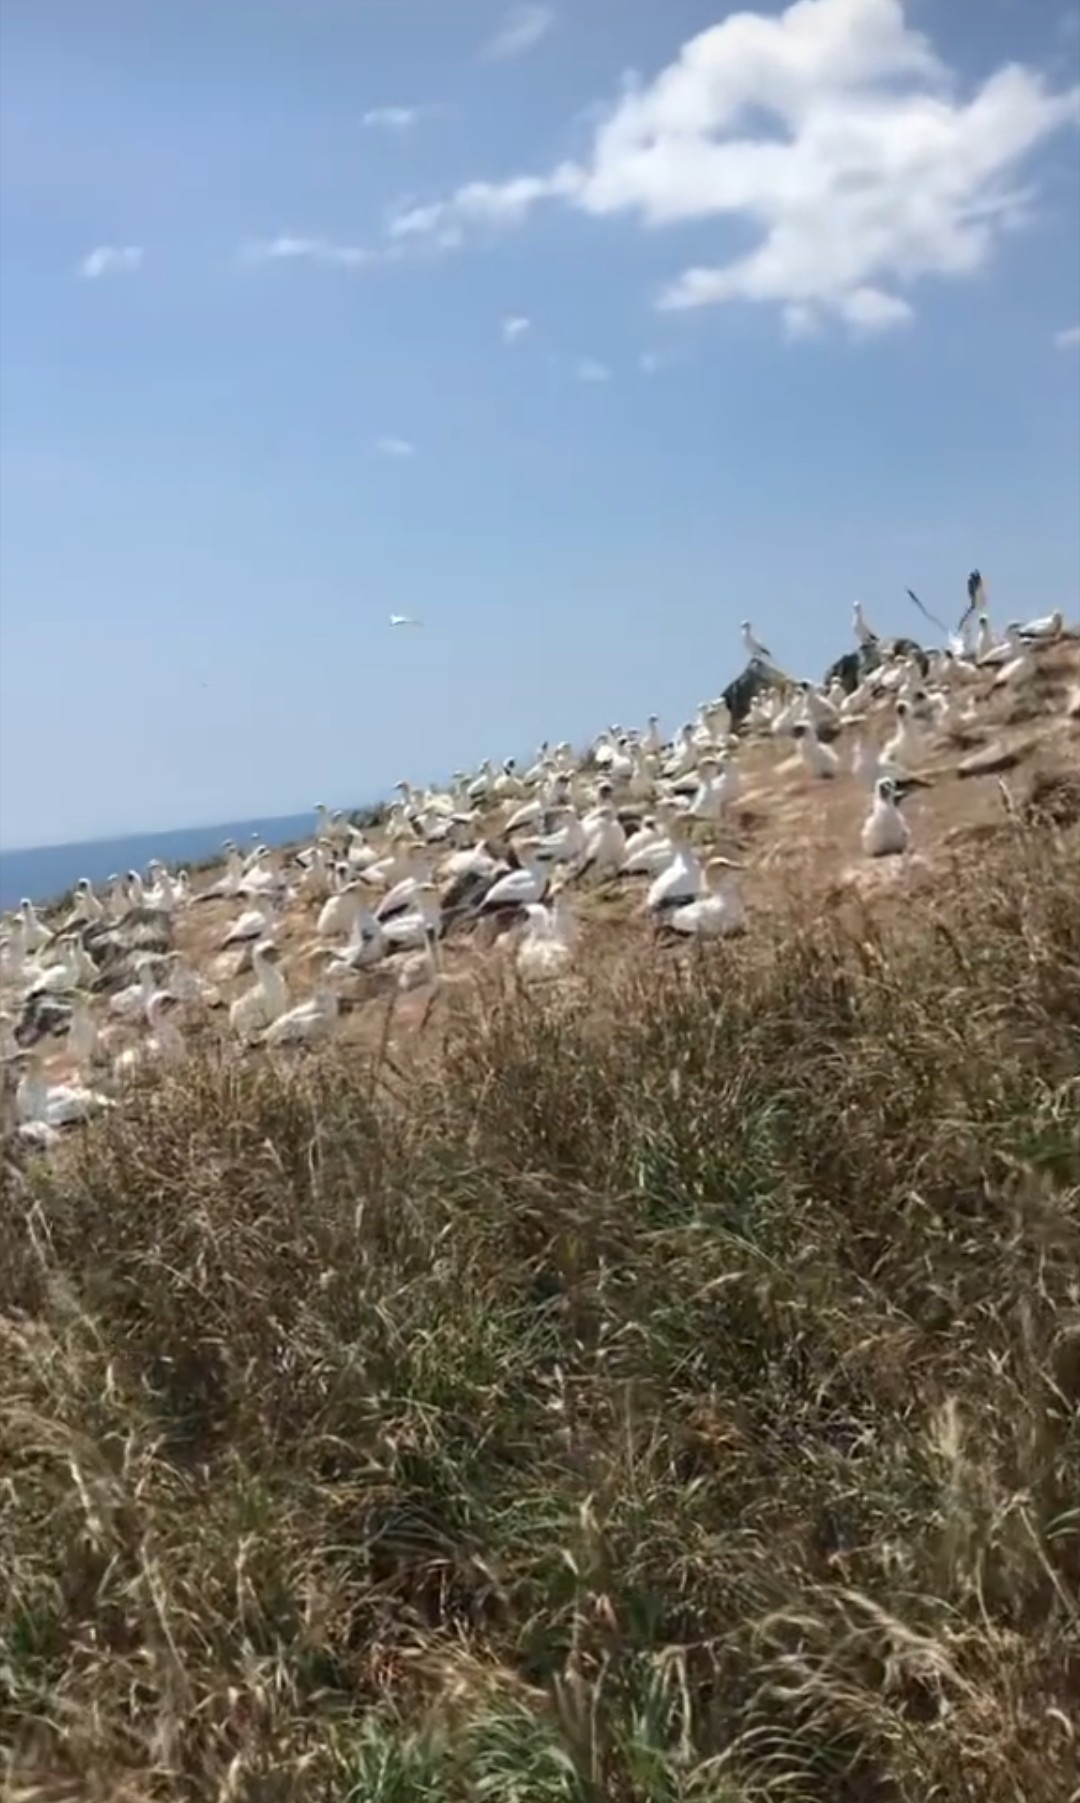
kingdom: Animalia
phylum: Chordata
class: Aves
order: Suliformes
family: Sulidae
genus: Morus
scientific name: Morus serrator
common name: Australasian gannet
